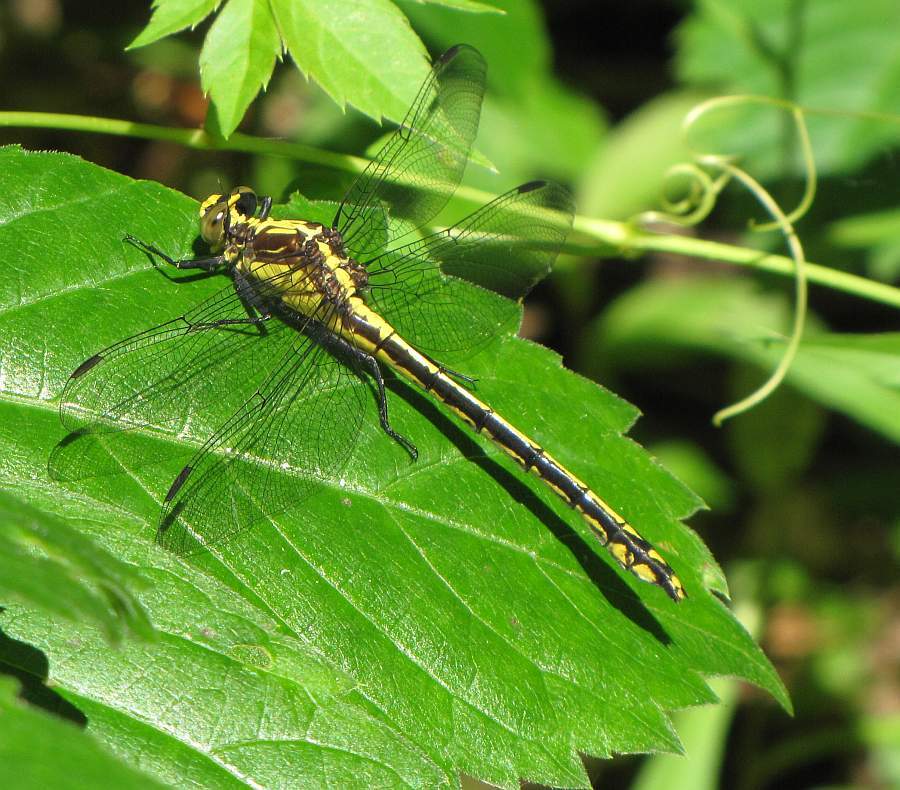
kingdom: Animalia
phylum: Arthropoda
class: Insecta
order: Odonata
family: Gomphidae
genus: Dromogomphus
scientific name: Dromogomphus spinosus
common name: Black-shouldered spinyleg
